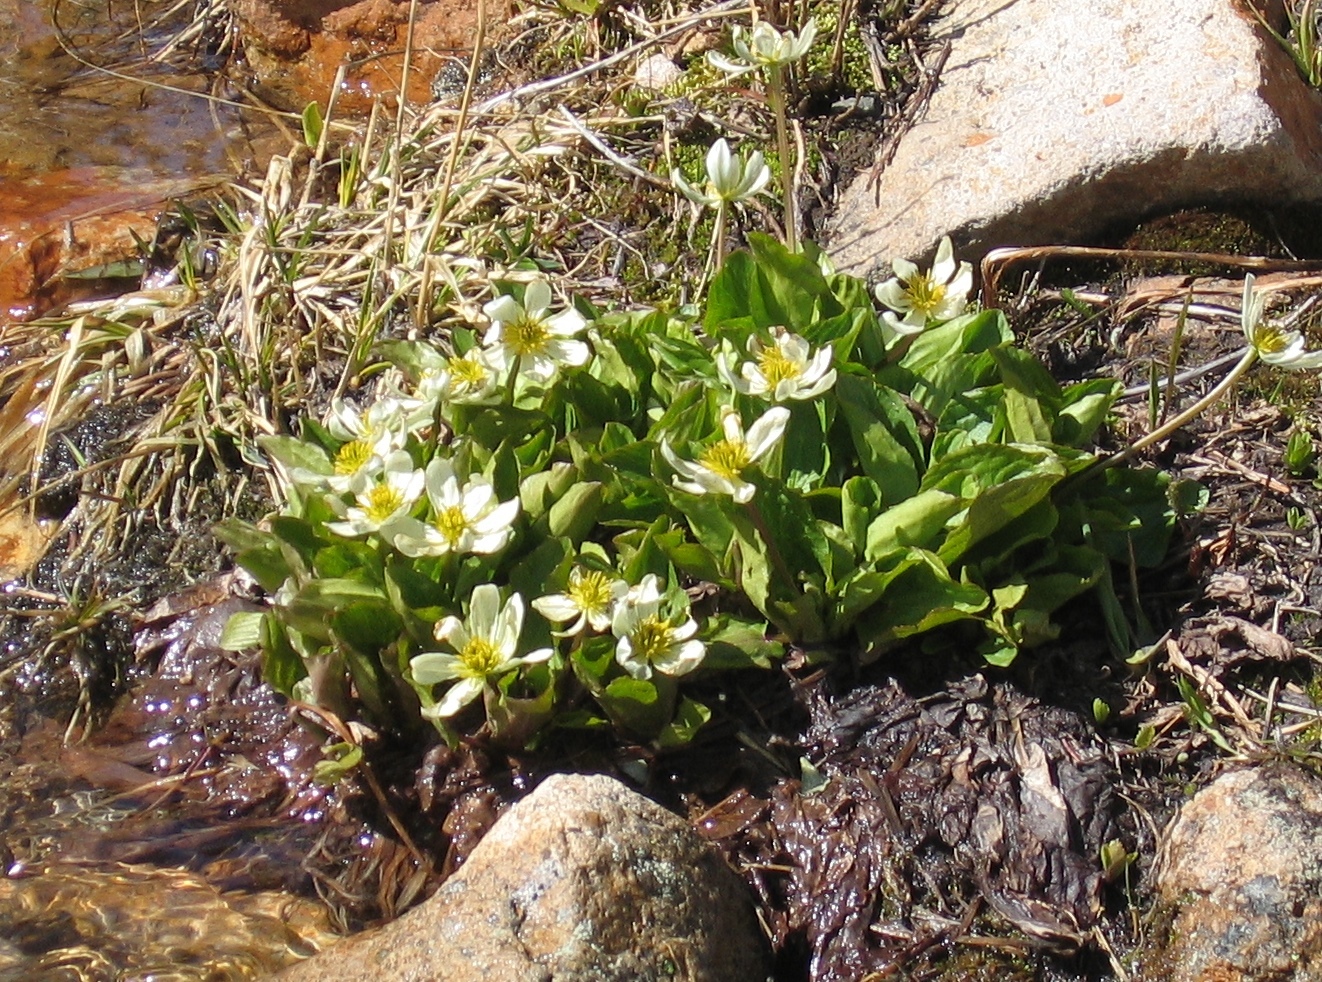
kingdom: Plantae
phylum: Tracheophyta
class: Magnoliopsida
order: Ranunculales
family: Ranunculaceae
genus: Caltha
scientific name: Caltha leptosepala
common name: Elkslip
